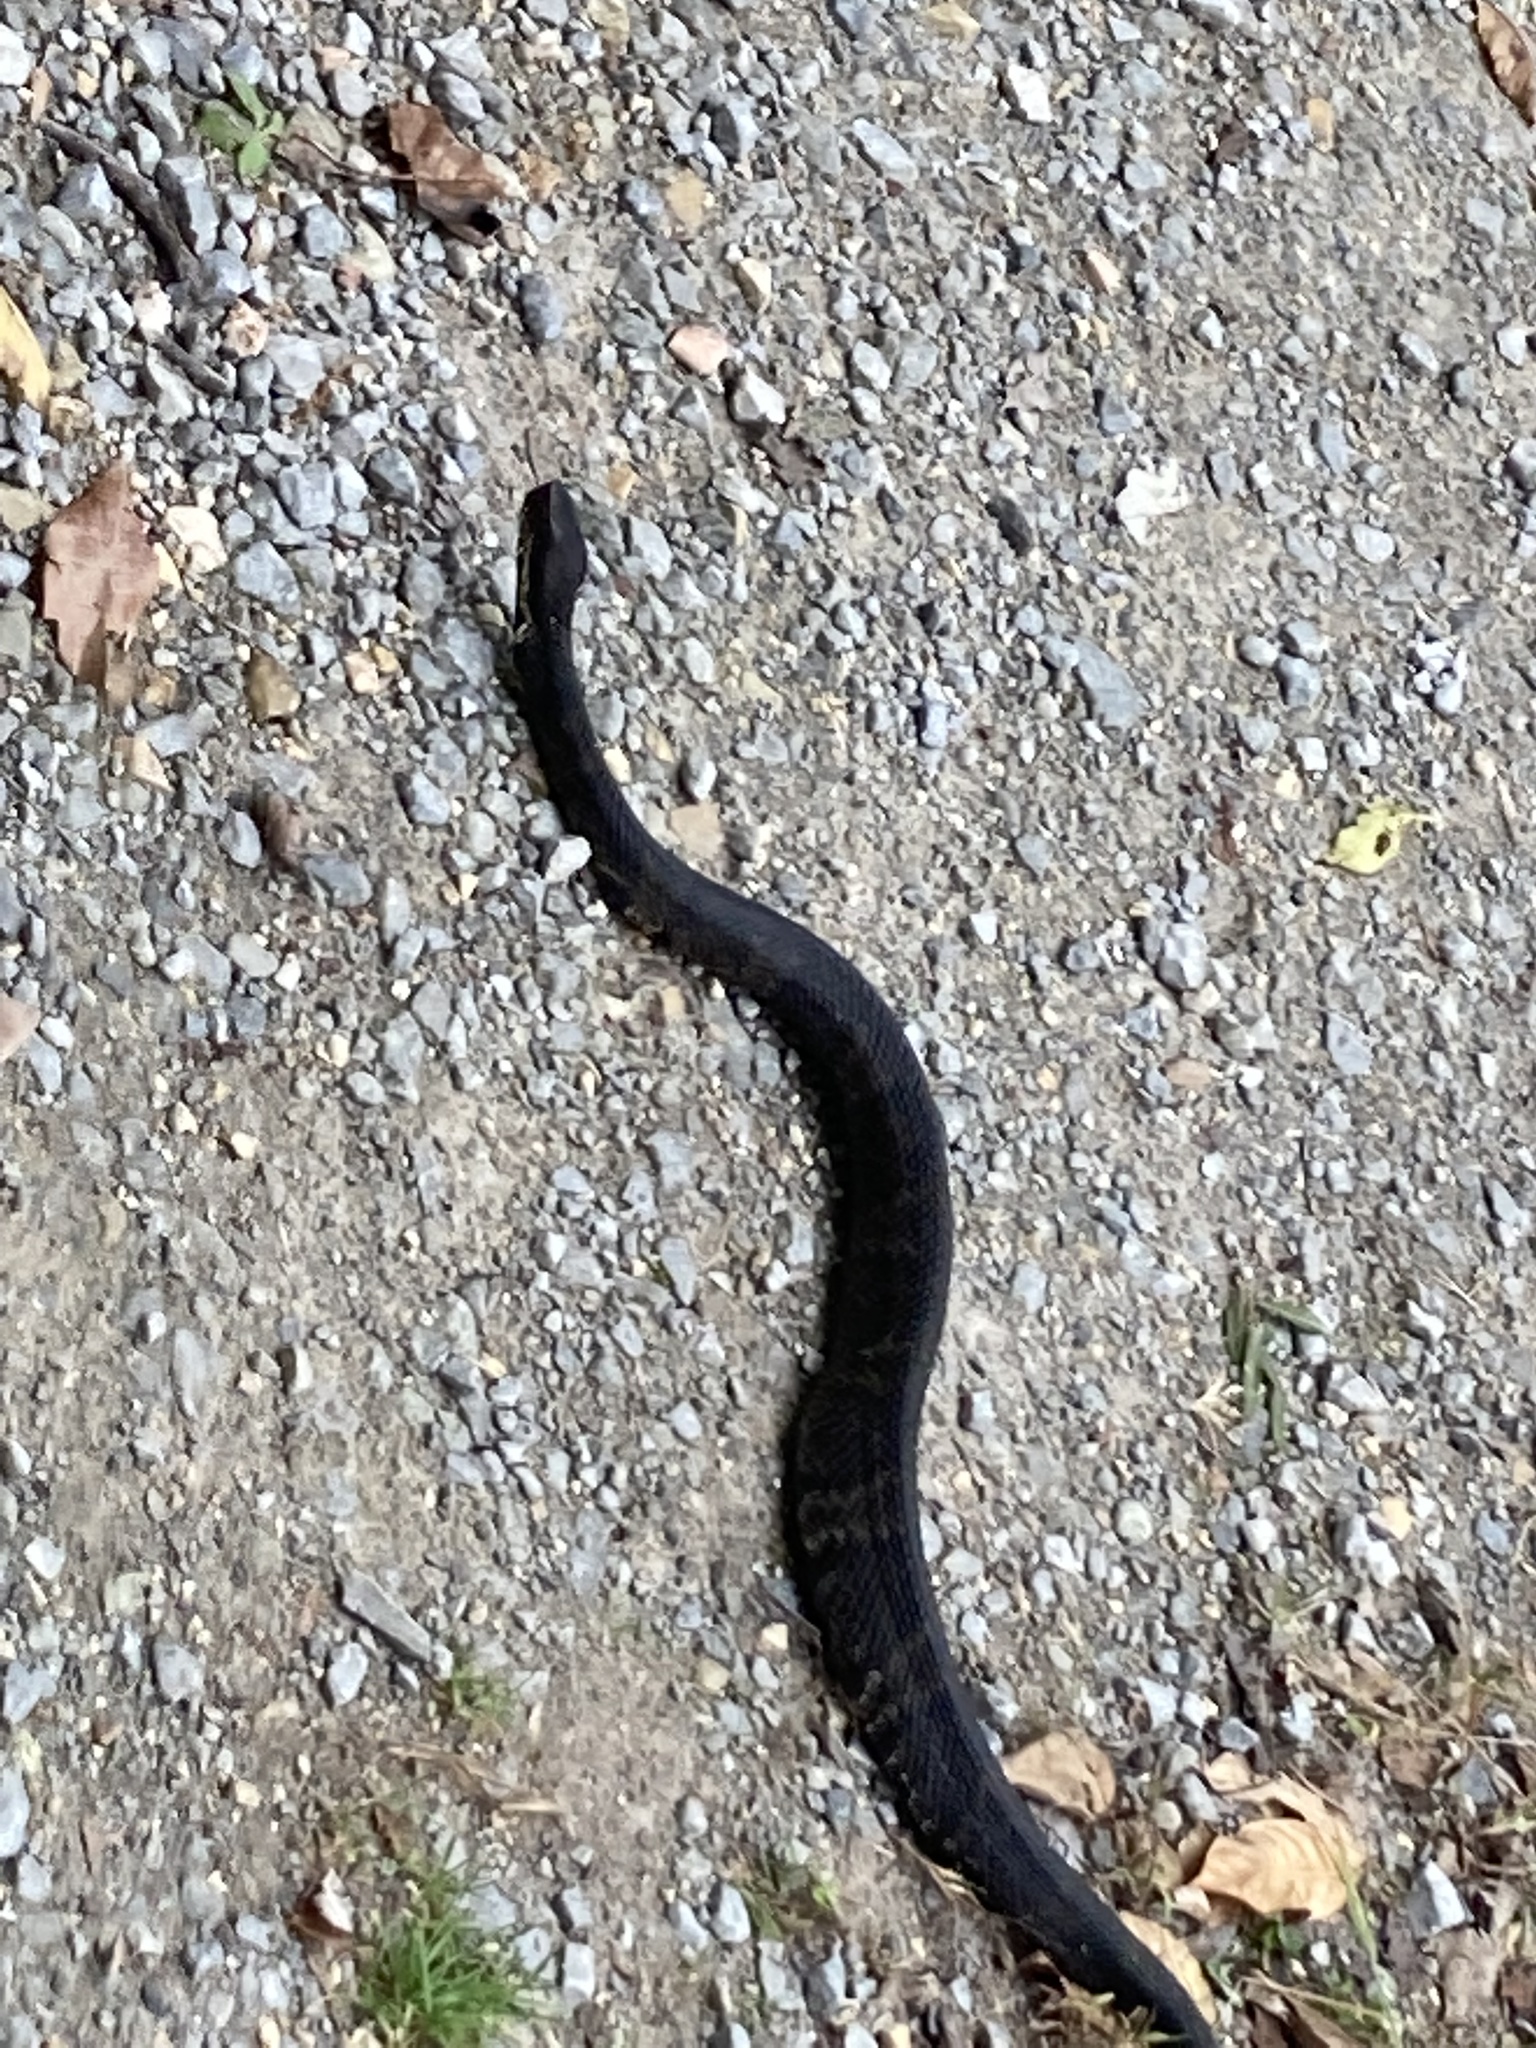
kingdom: Animalia
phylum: Chordata
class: Squamata
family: Viperidae
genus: Agkistrodon
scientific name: Agkistrodon piscivorus
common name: Cottonmouth
